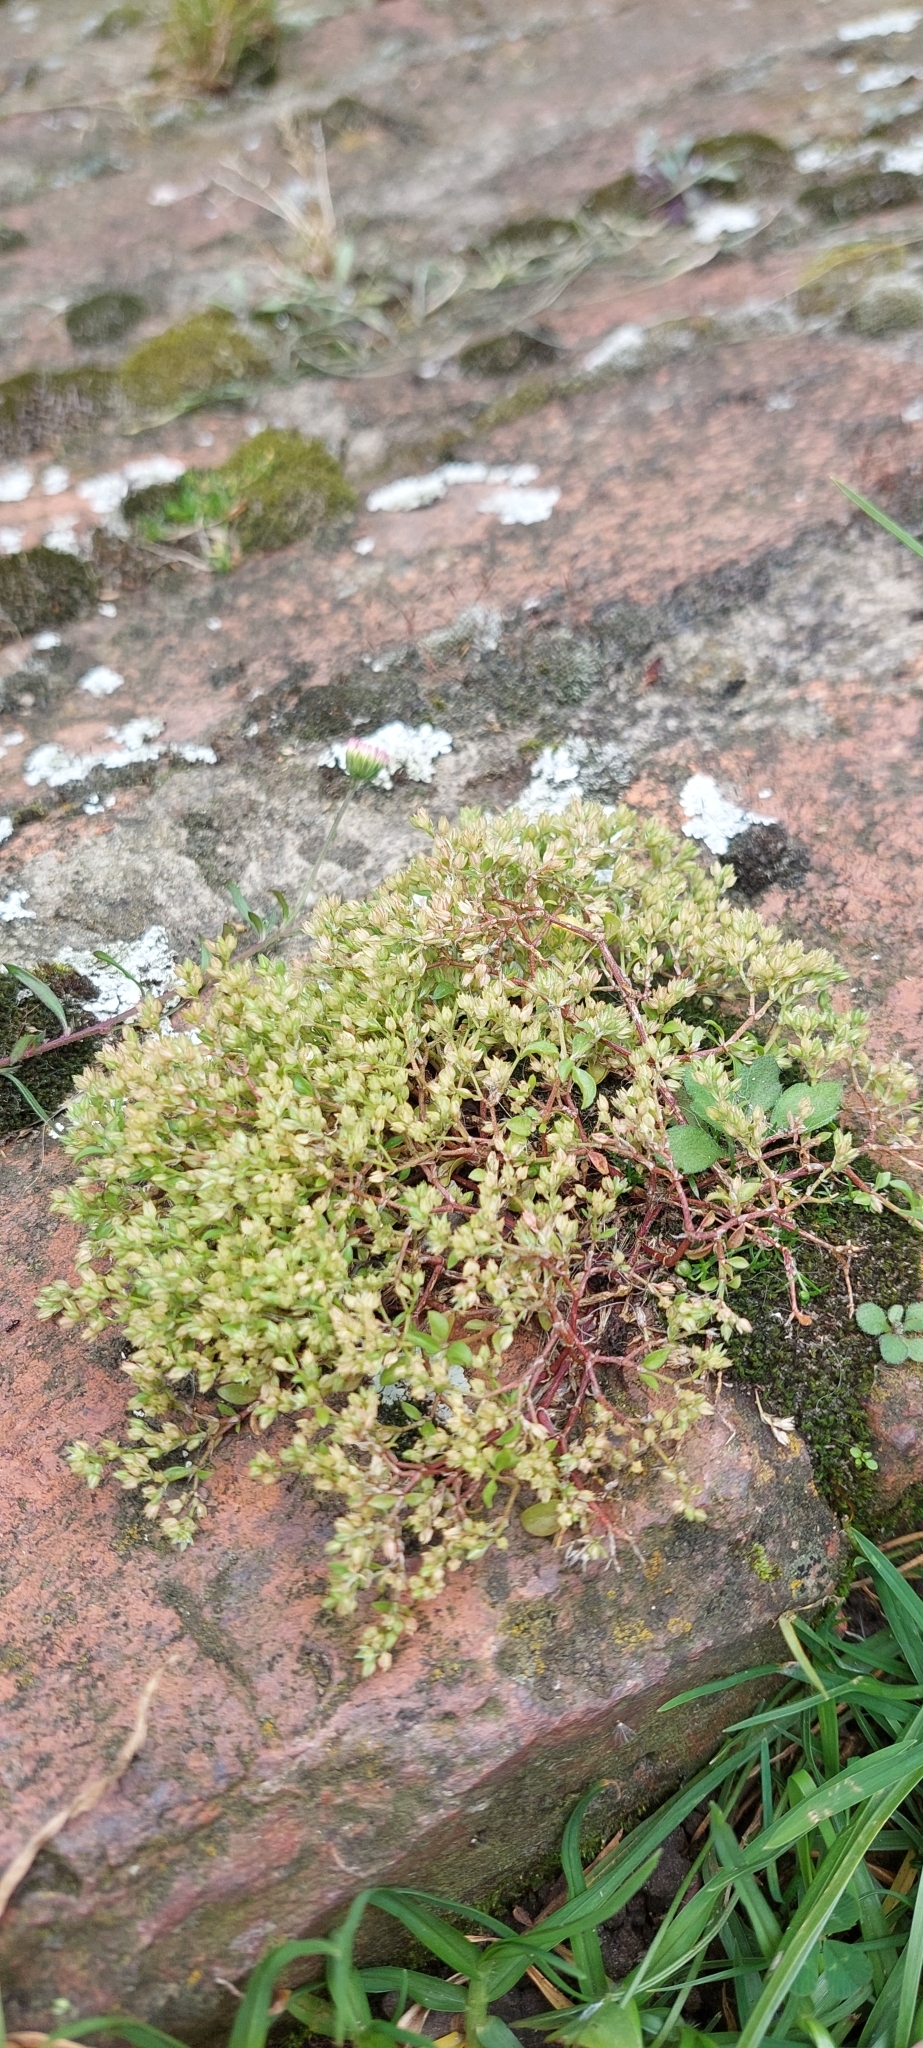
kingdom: Plantae
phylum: Tracheophyta
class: Magnoliopsida
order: Caryophyllales
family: Caryophyllaceae
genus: Polycarpon
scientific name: Polycarpon tetraphyllum
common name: Four-leaved all-seed
